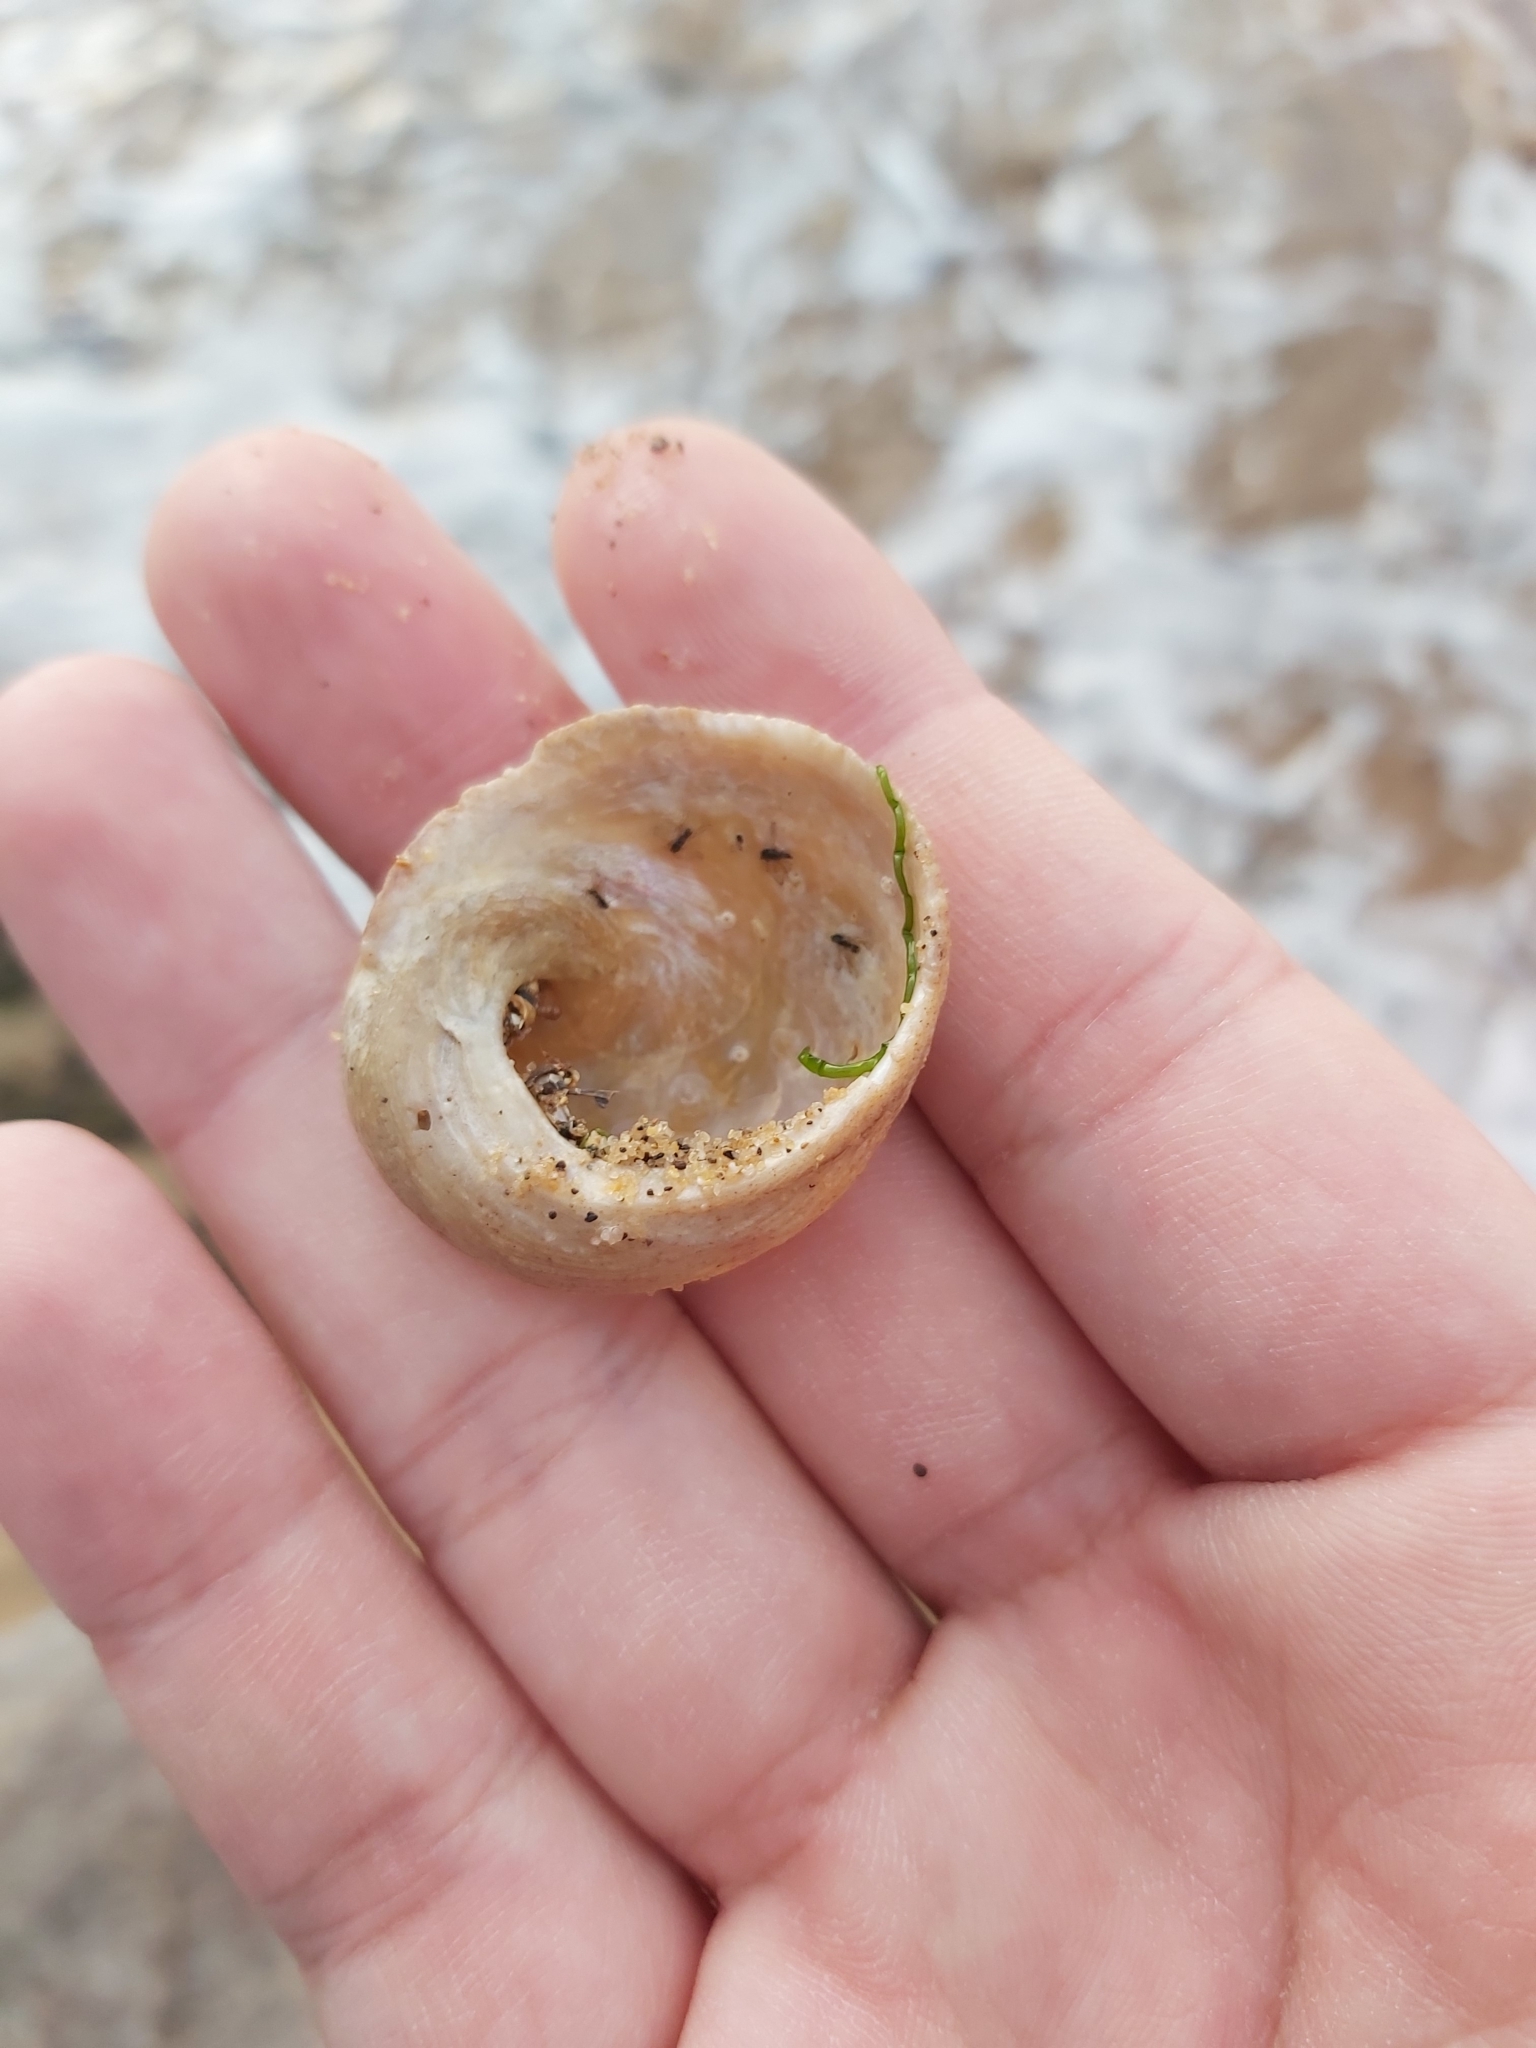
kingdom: Animalia
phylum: Mollusca
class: Gastropoda
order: Seguenziida
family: Chilodontaidae
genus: Granata
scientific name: Granata imbricata
